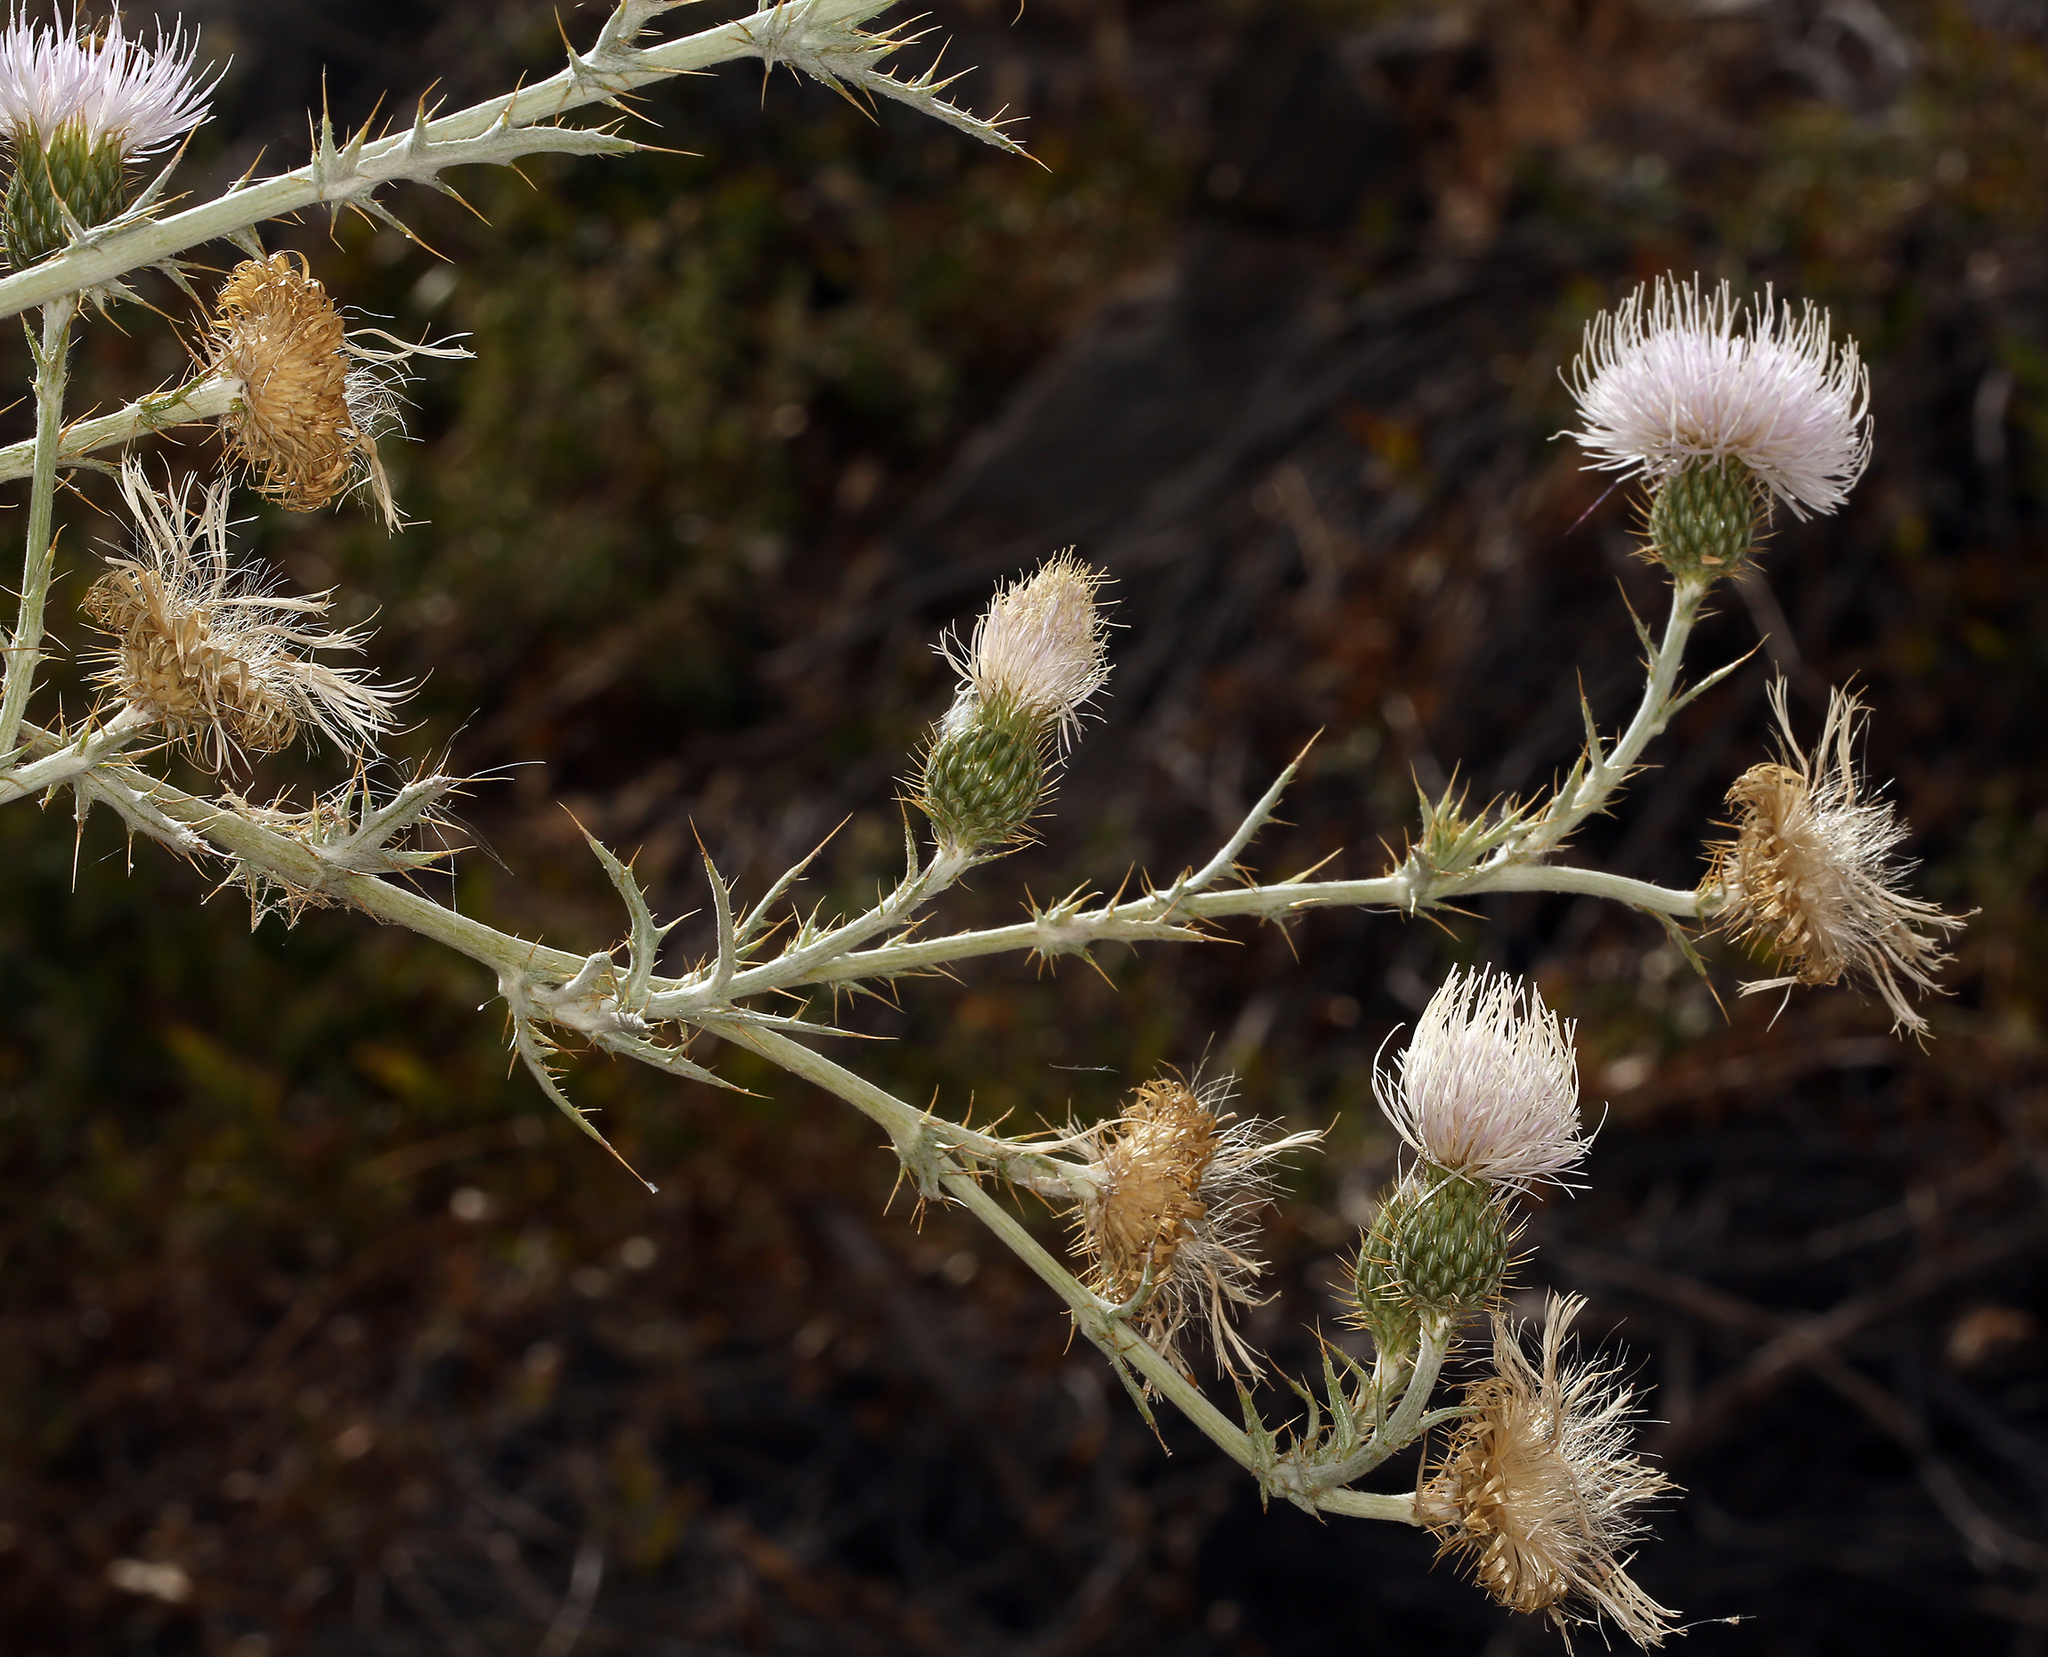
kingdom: Plantae
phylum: Tracheophyta
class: Magnoliopsida
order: Asterales
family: Asteraceae
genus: Cirsium
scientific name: Cirsium mohavense
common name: Mojave thistle
